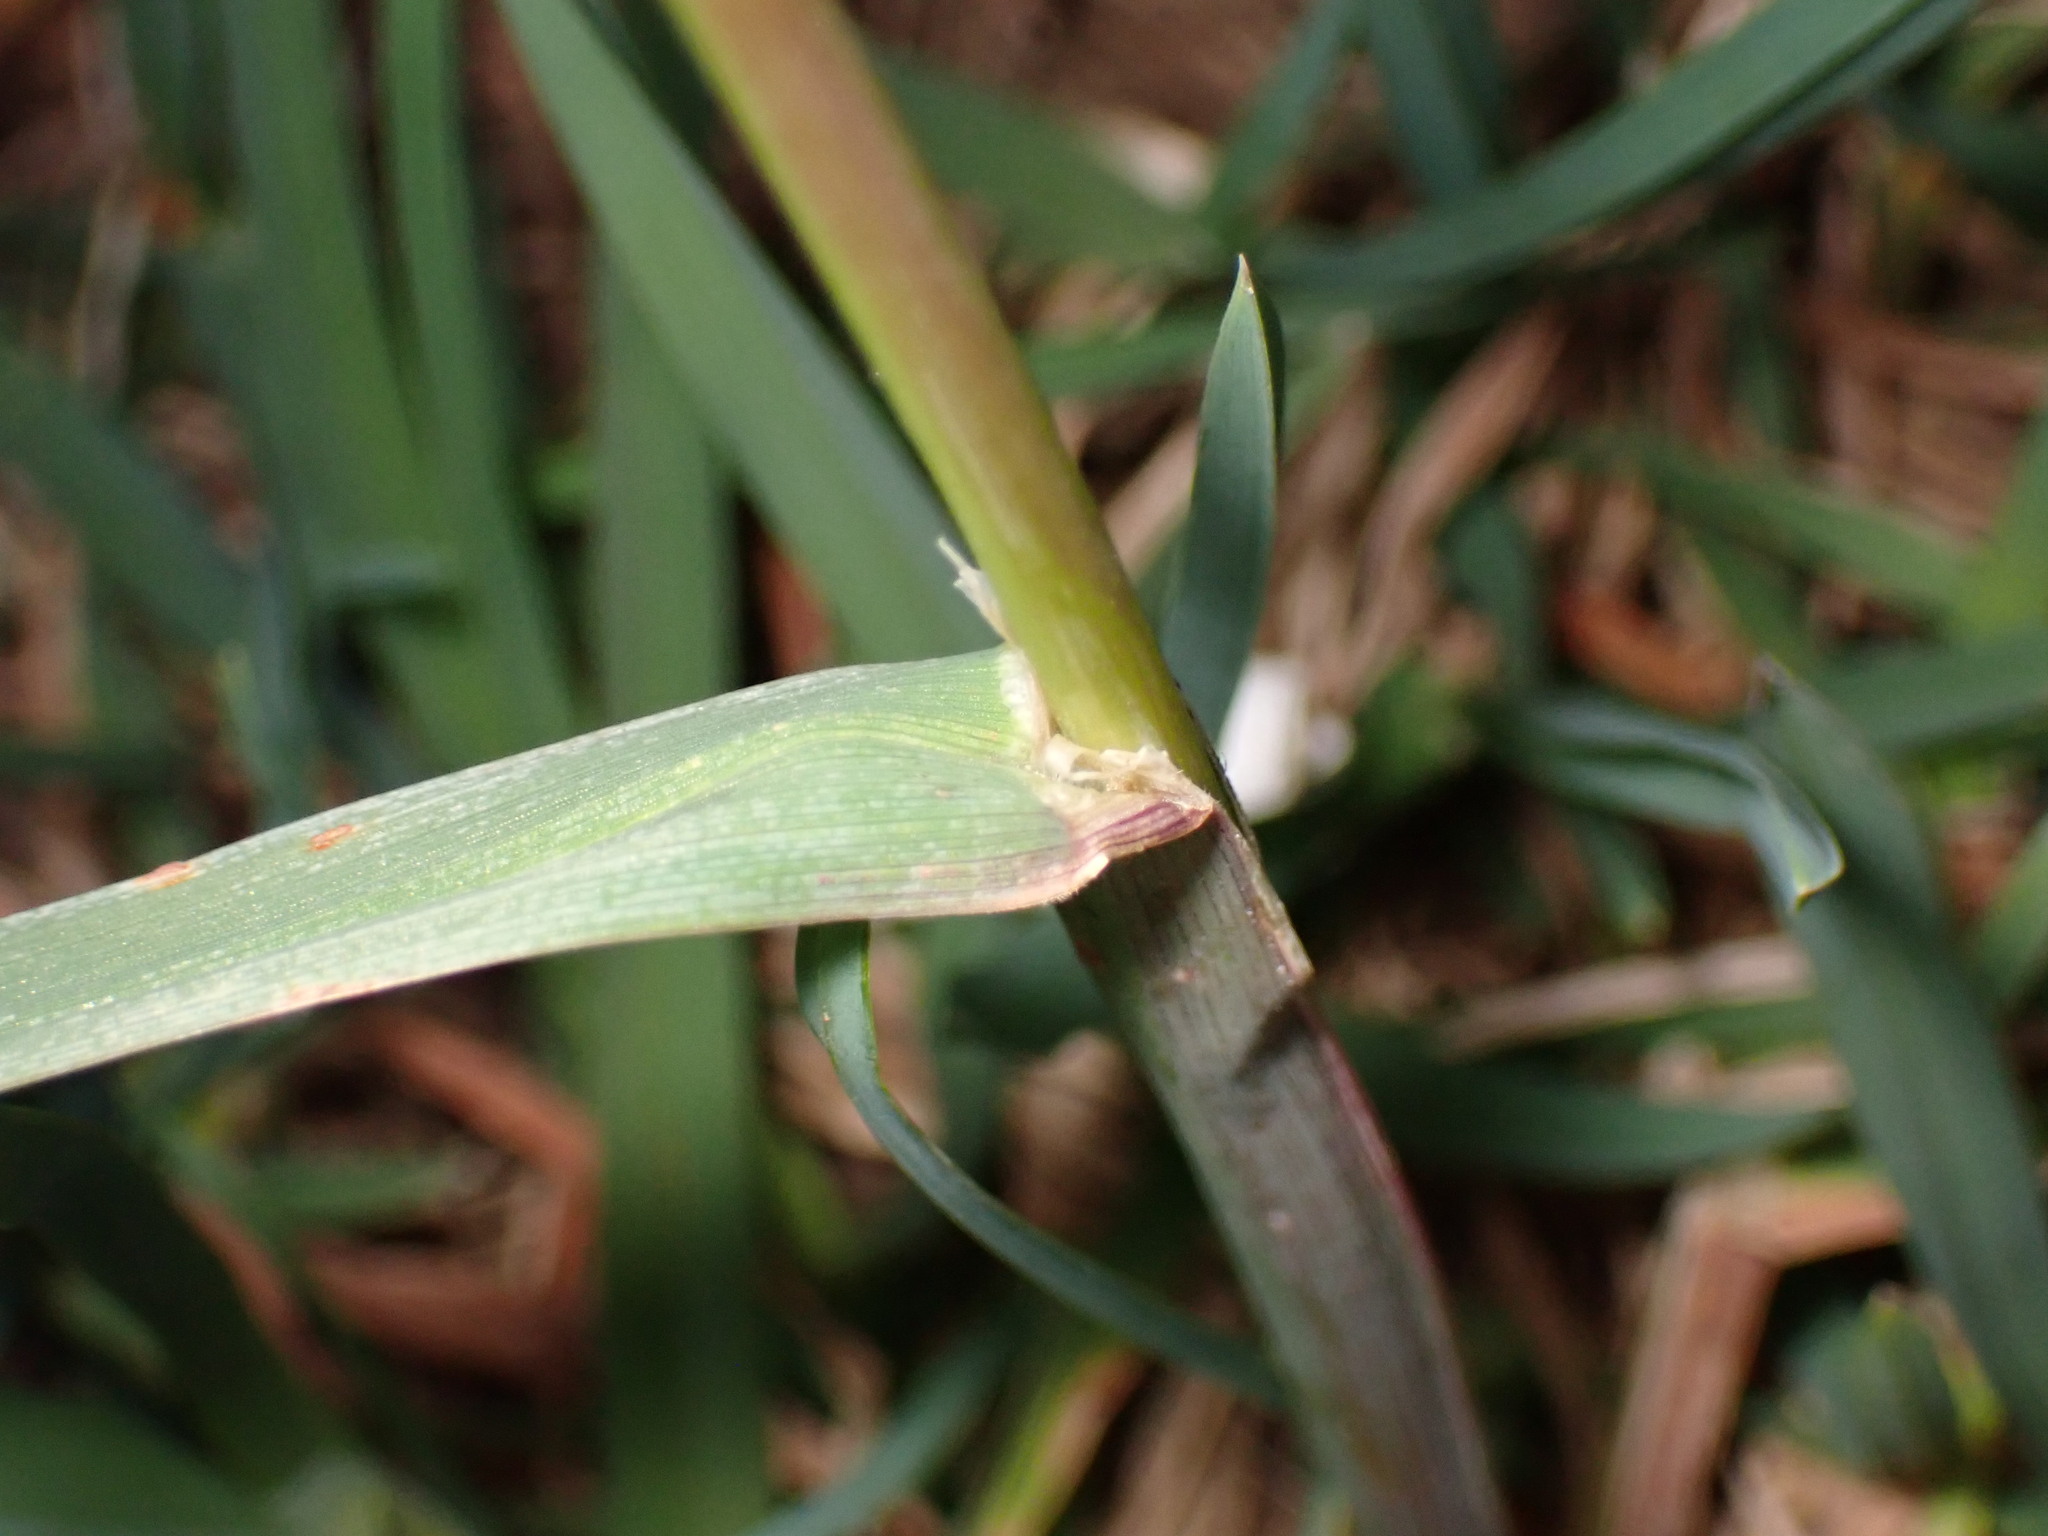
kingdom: Plantae
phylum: Tracheophyta
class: Liliopsida
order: Poales
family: Poaceae
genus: Dactylis
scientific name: Dactylis glomerata
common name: Orchardgrass
